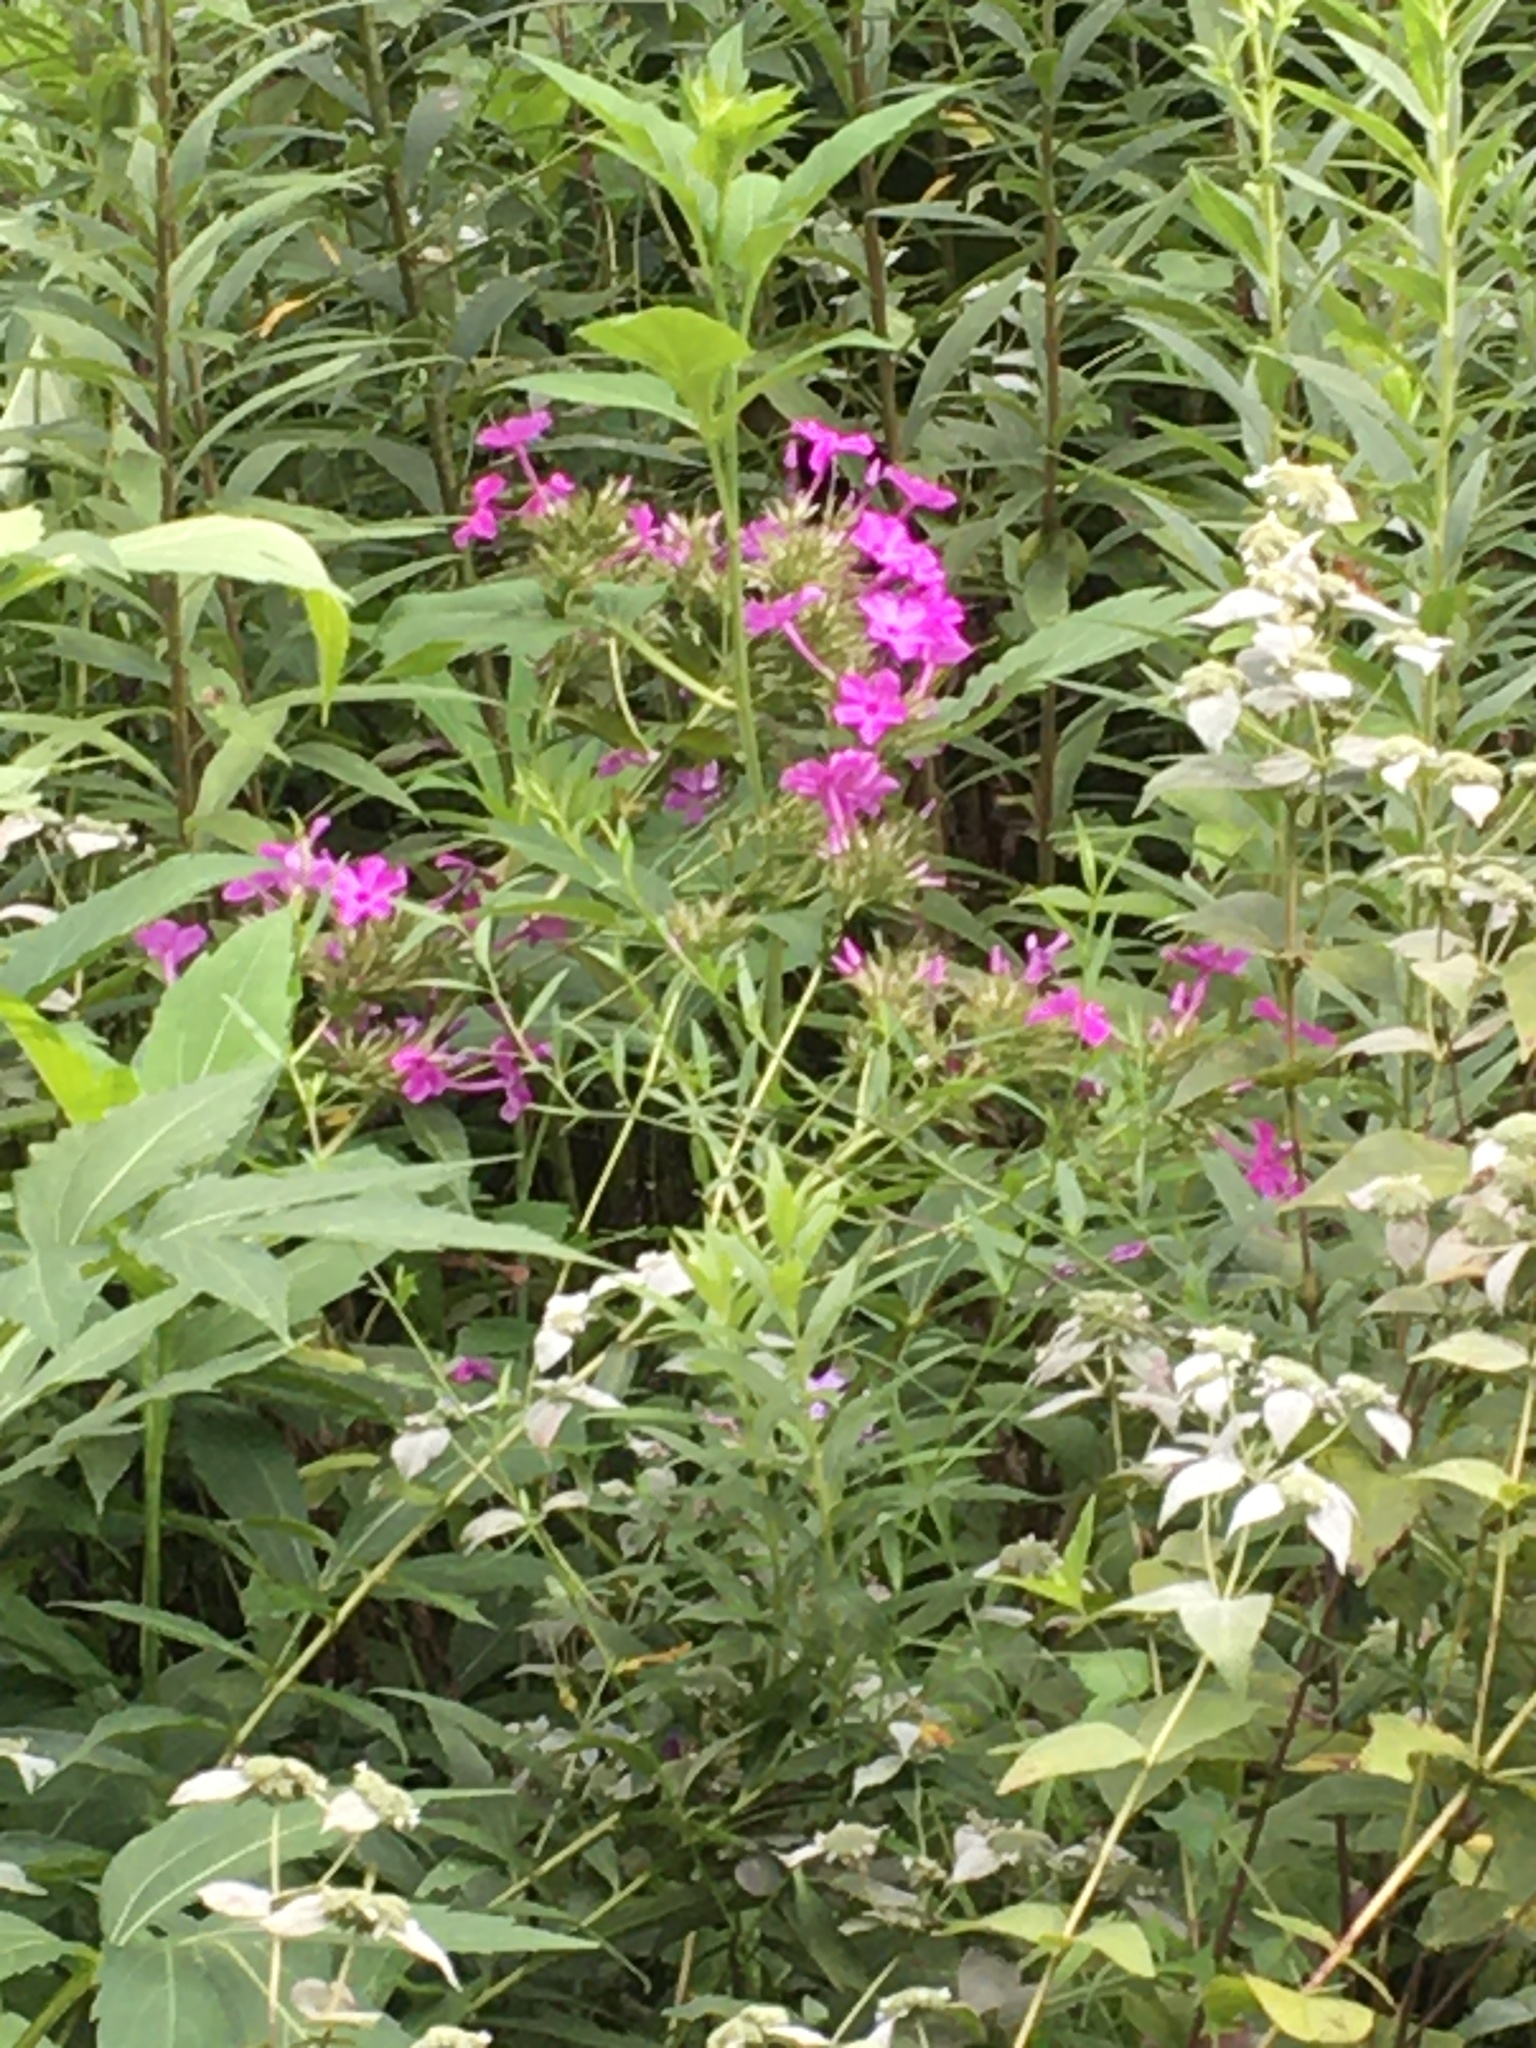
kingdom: Plantae
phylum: Tracheophyta
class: Magnoliopsida
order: Ericales
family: Polemoniaceae
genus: Phlox
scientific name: Phlox paniculata
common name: Fall phlox
